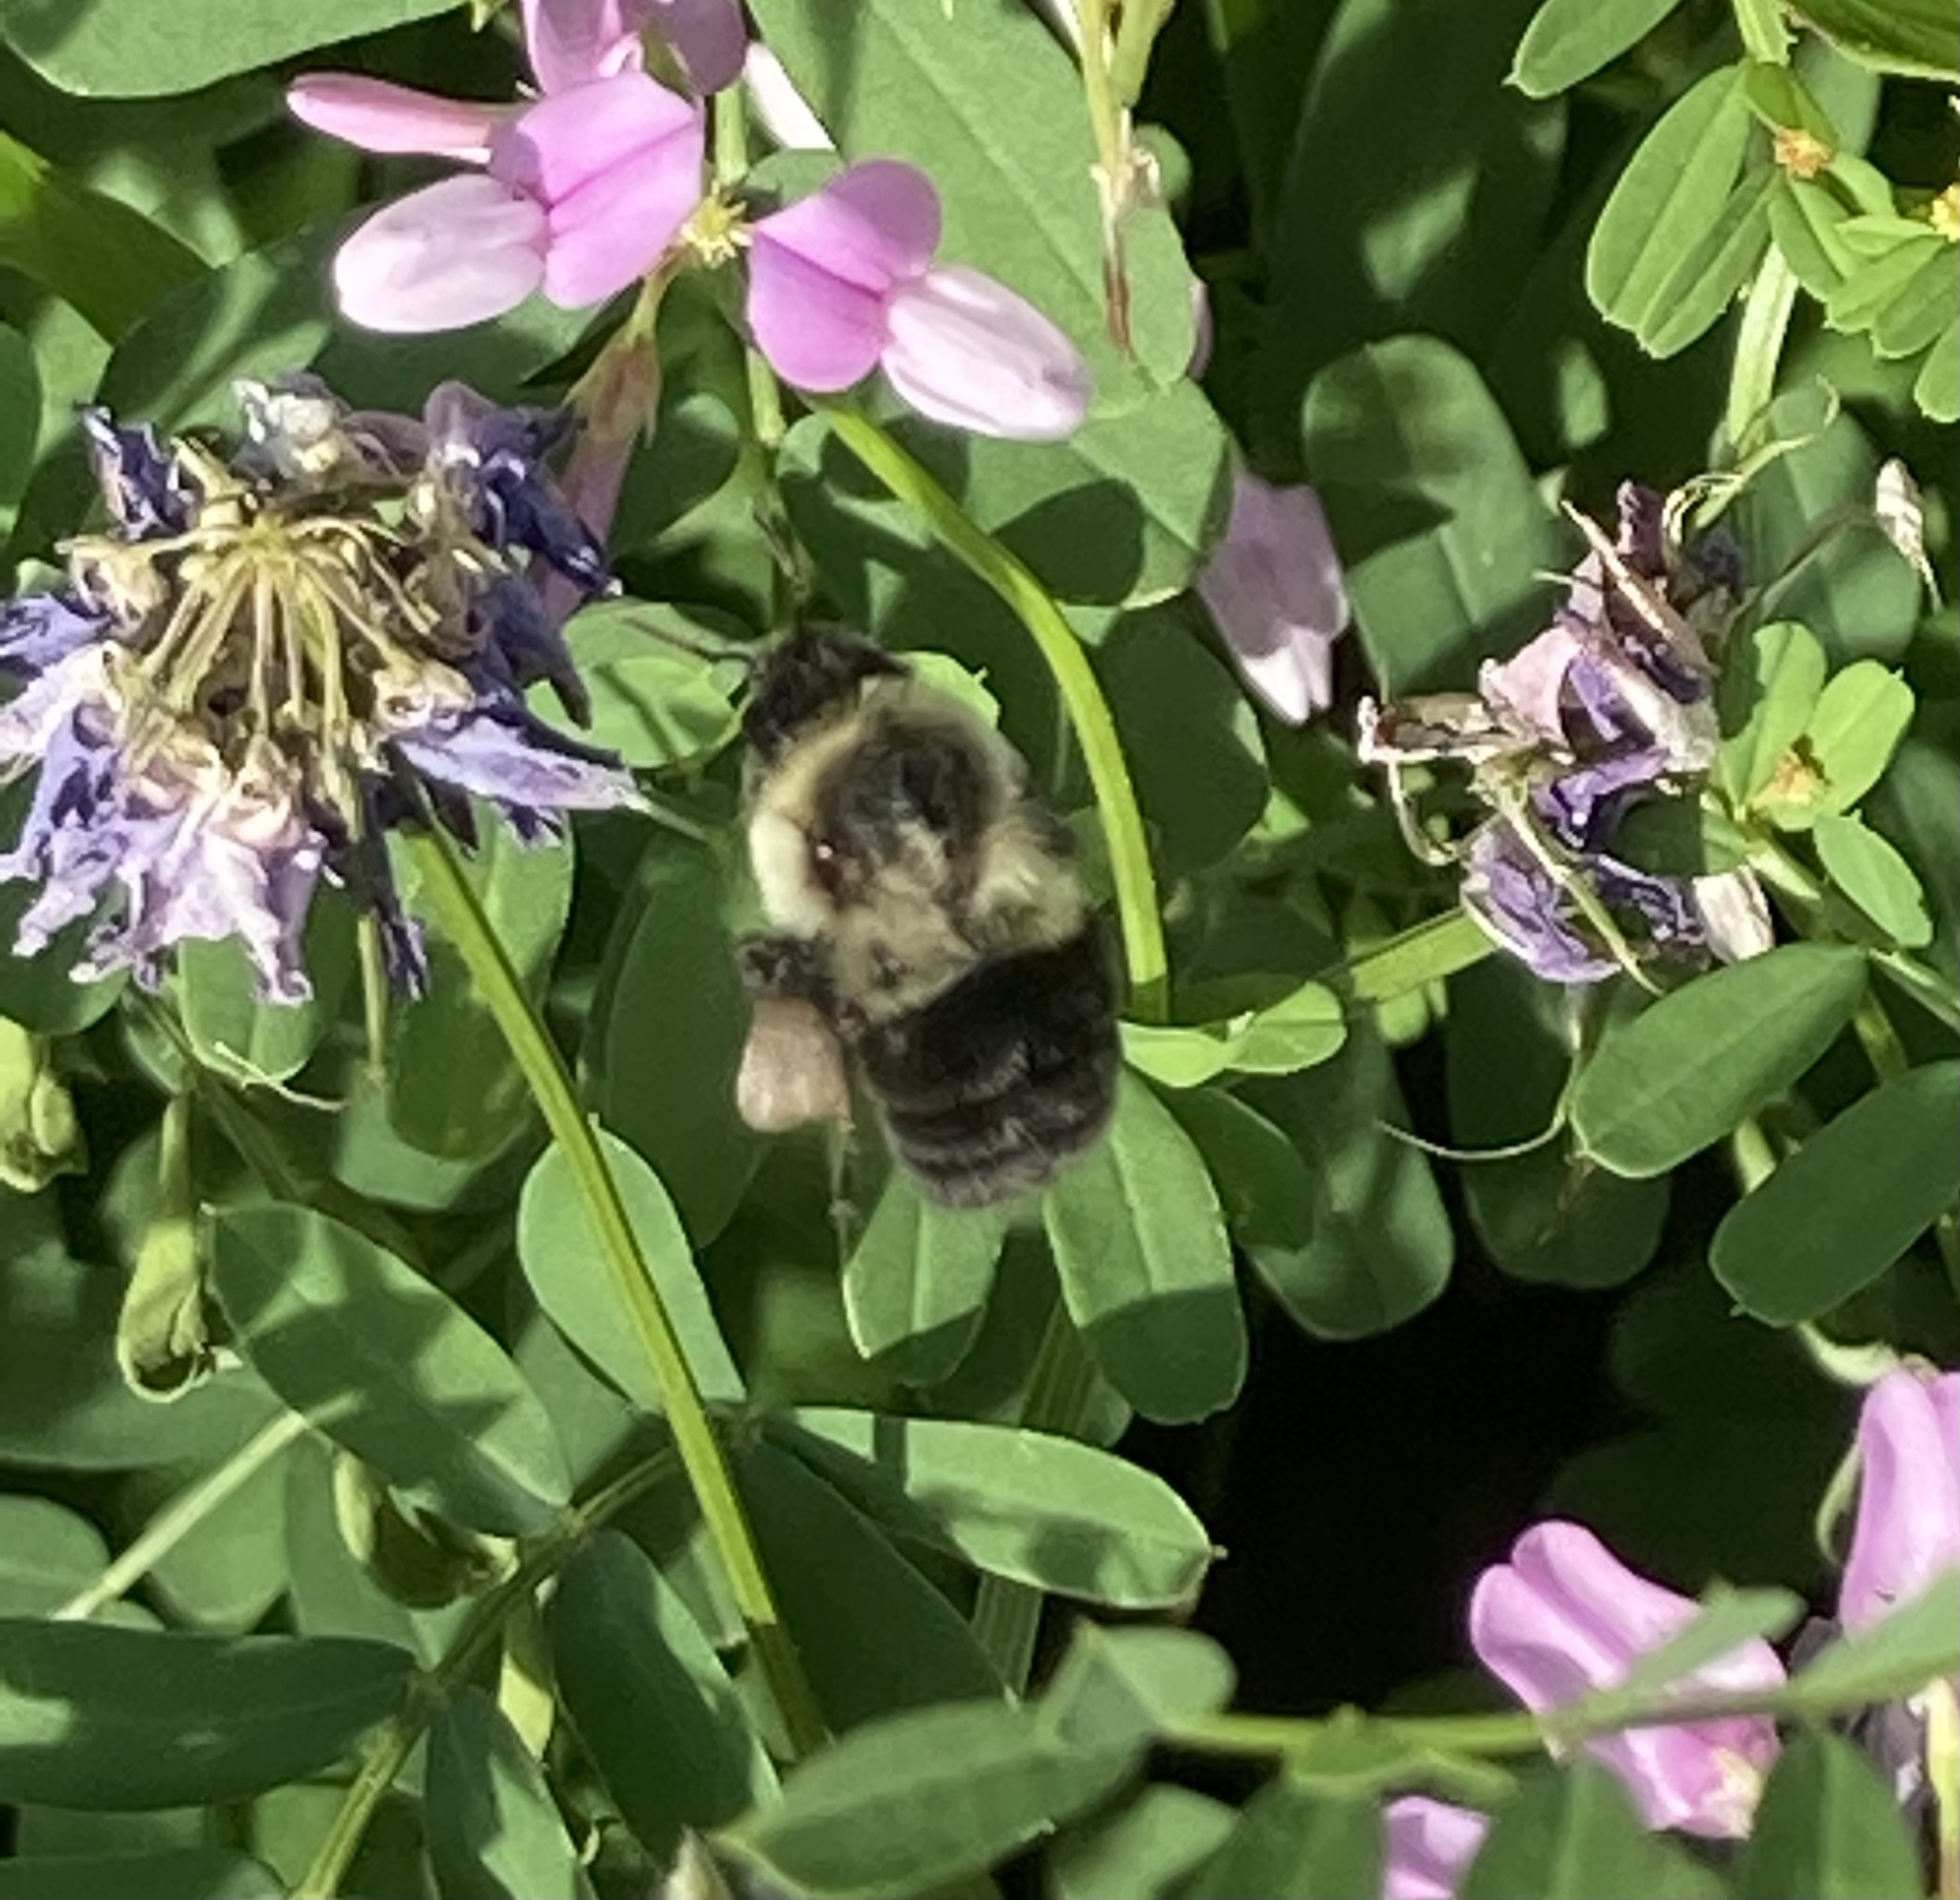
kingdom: Animalia
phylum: Arthropoda
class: Insecta
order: Hymenoptera
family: Apidae
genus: Bombus
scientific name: Bombus impatiens
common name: Common eastern bumble bee
